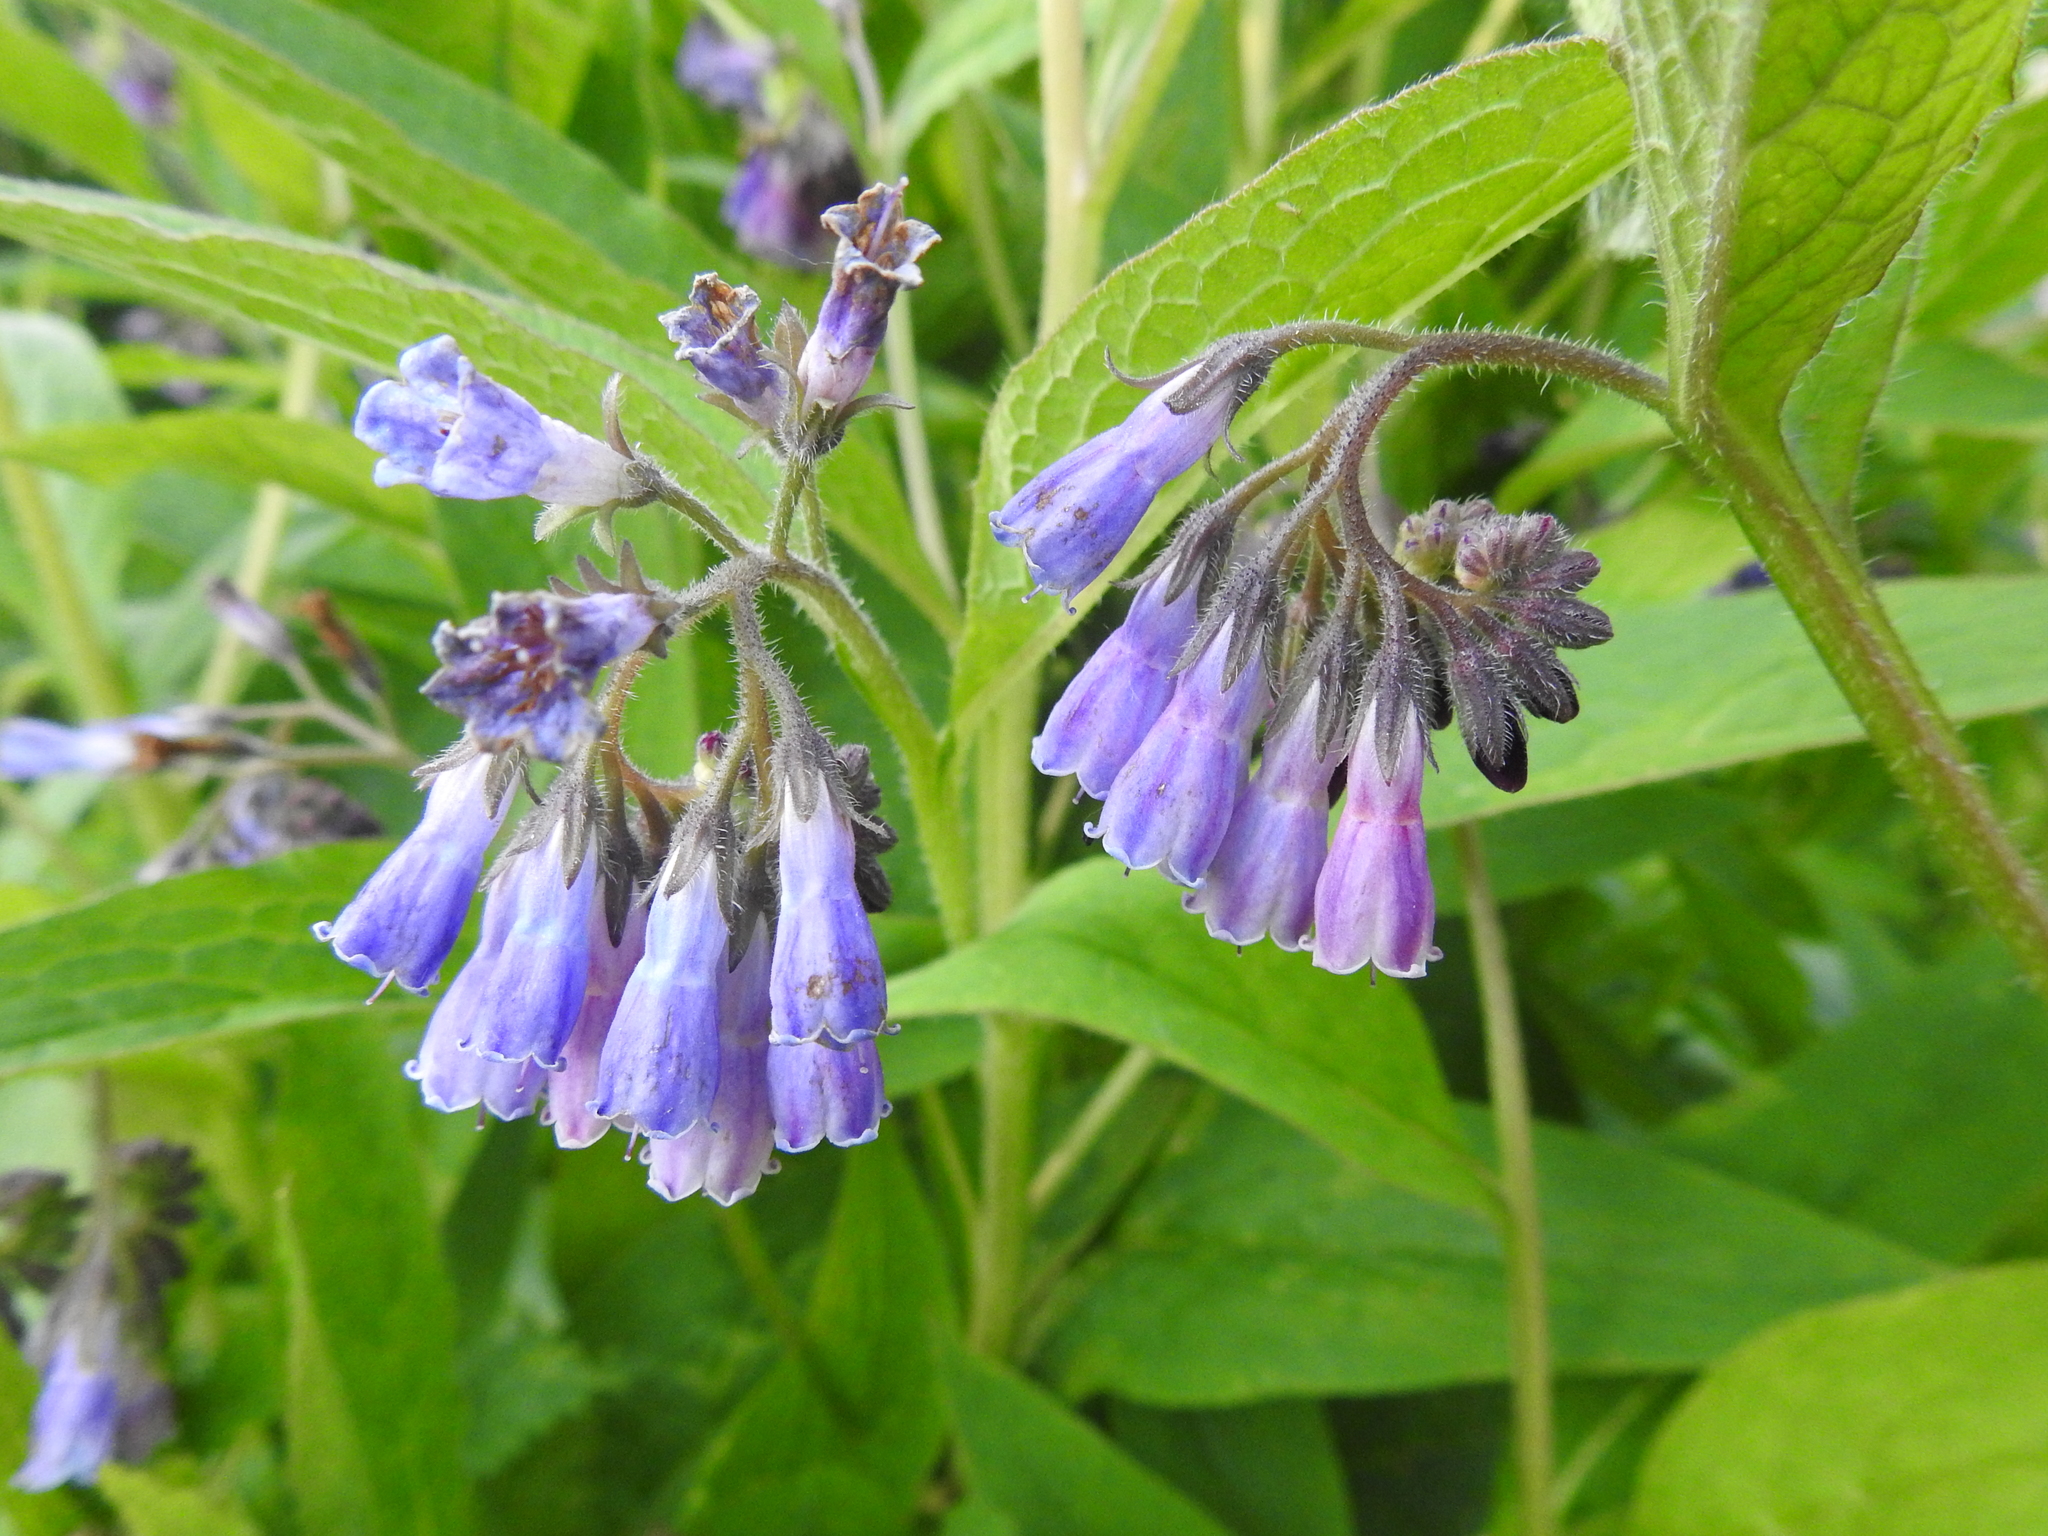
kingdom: Plantae
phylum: Tracheophyta
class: Magnoliopsida
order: Boraginales
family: Boraginaceae
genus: Symphytum
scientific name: Symphytum uplandicum
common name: Russian comfrey
